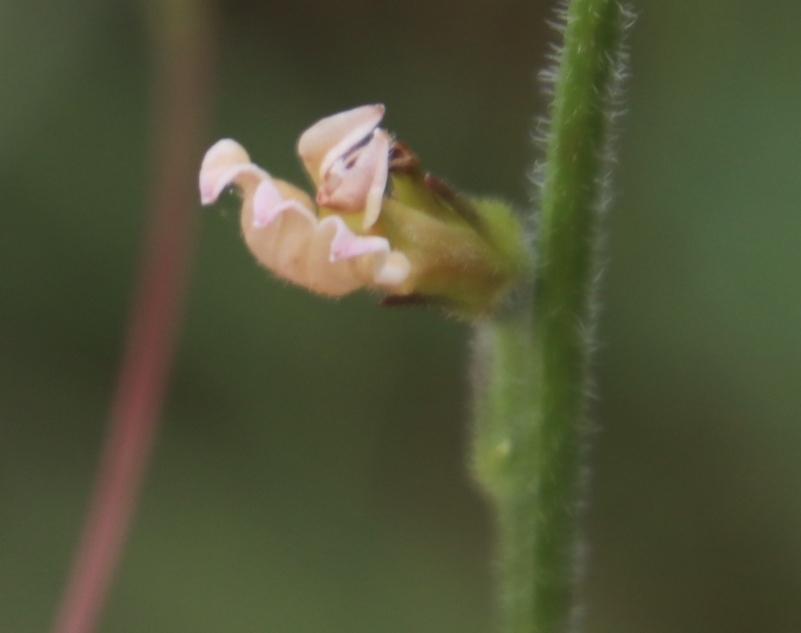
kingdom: Plantae
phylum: Tracheophyta
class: Magnoliopsida
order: Asterales
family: Campanulaceae
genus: Lobelia
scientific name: Lobelia eurypoda
